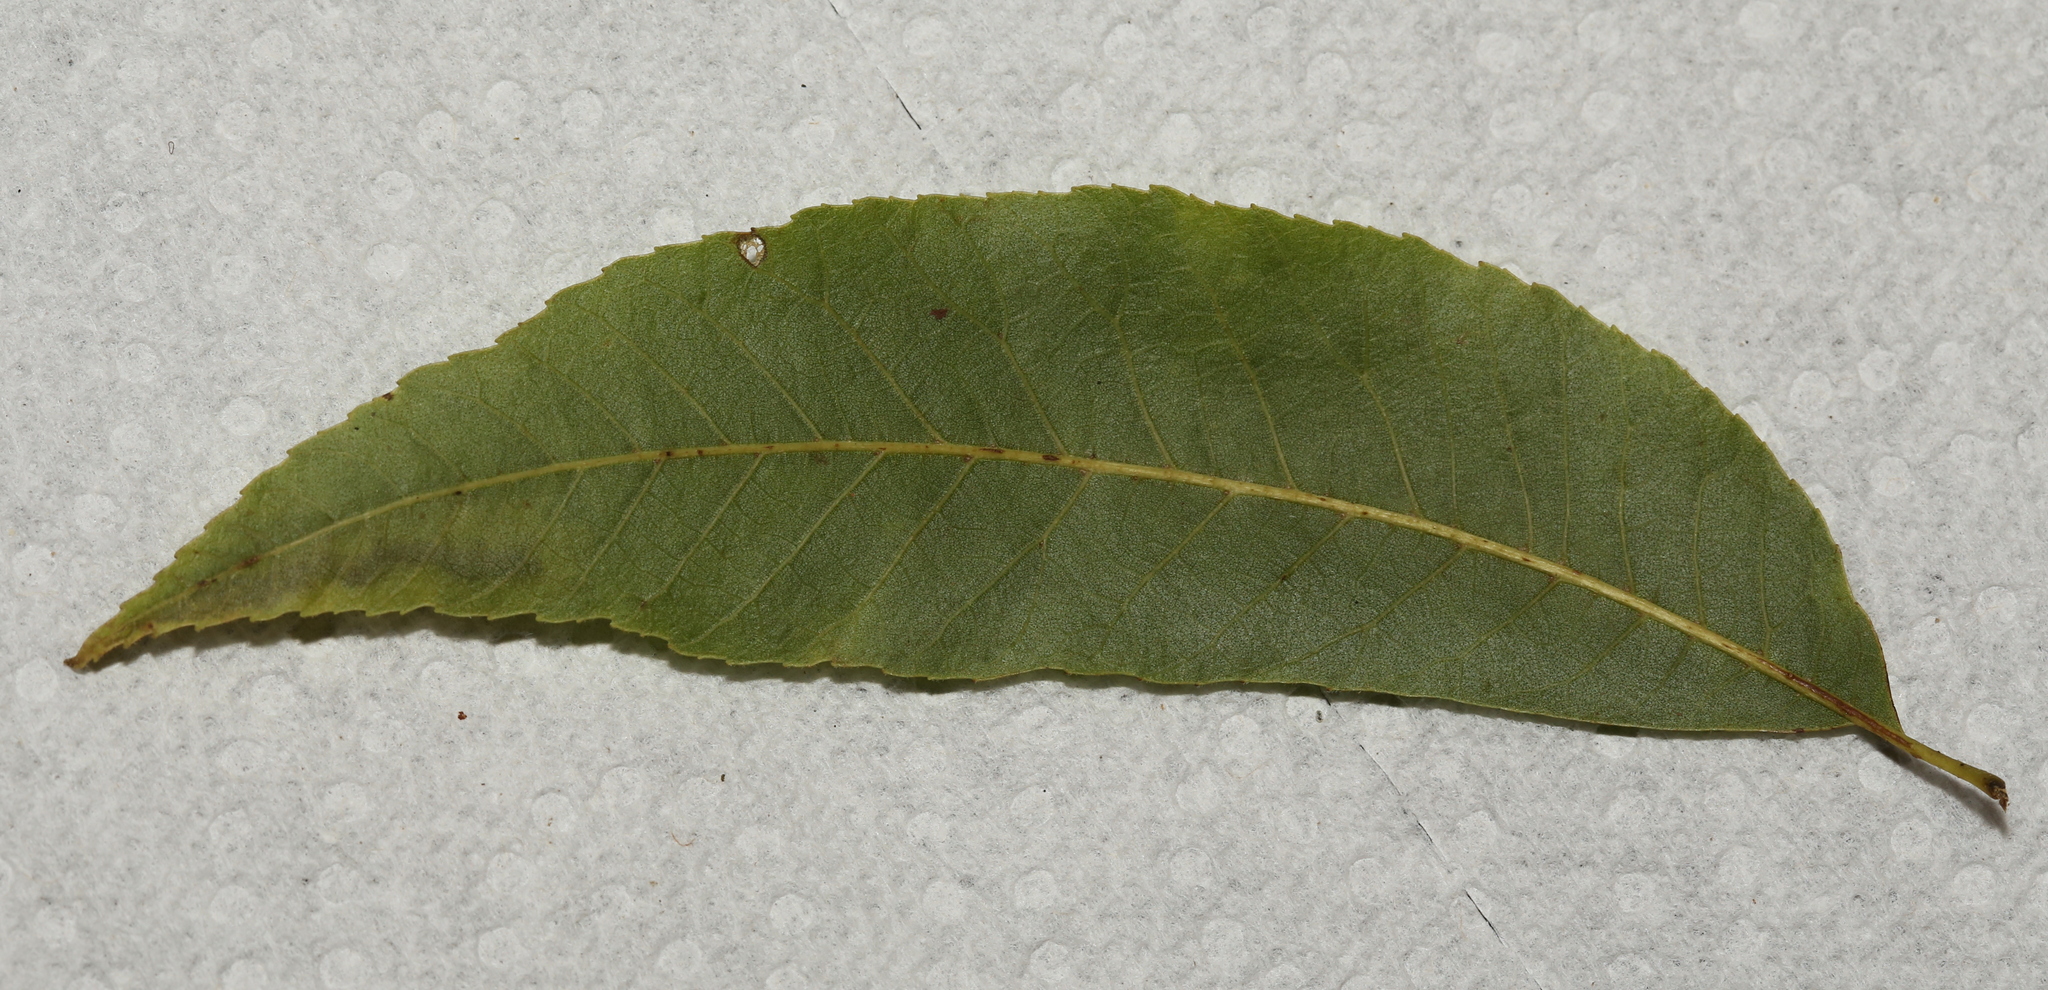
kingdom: Animalia
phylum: Arthropoda
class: Insecta
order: Lepidoptera
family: Gracillariidae
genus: Cameraria
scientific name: Cameraria caryaefoliella
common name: Pecan leafminer moth
